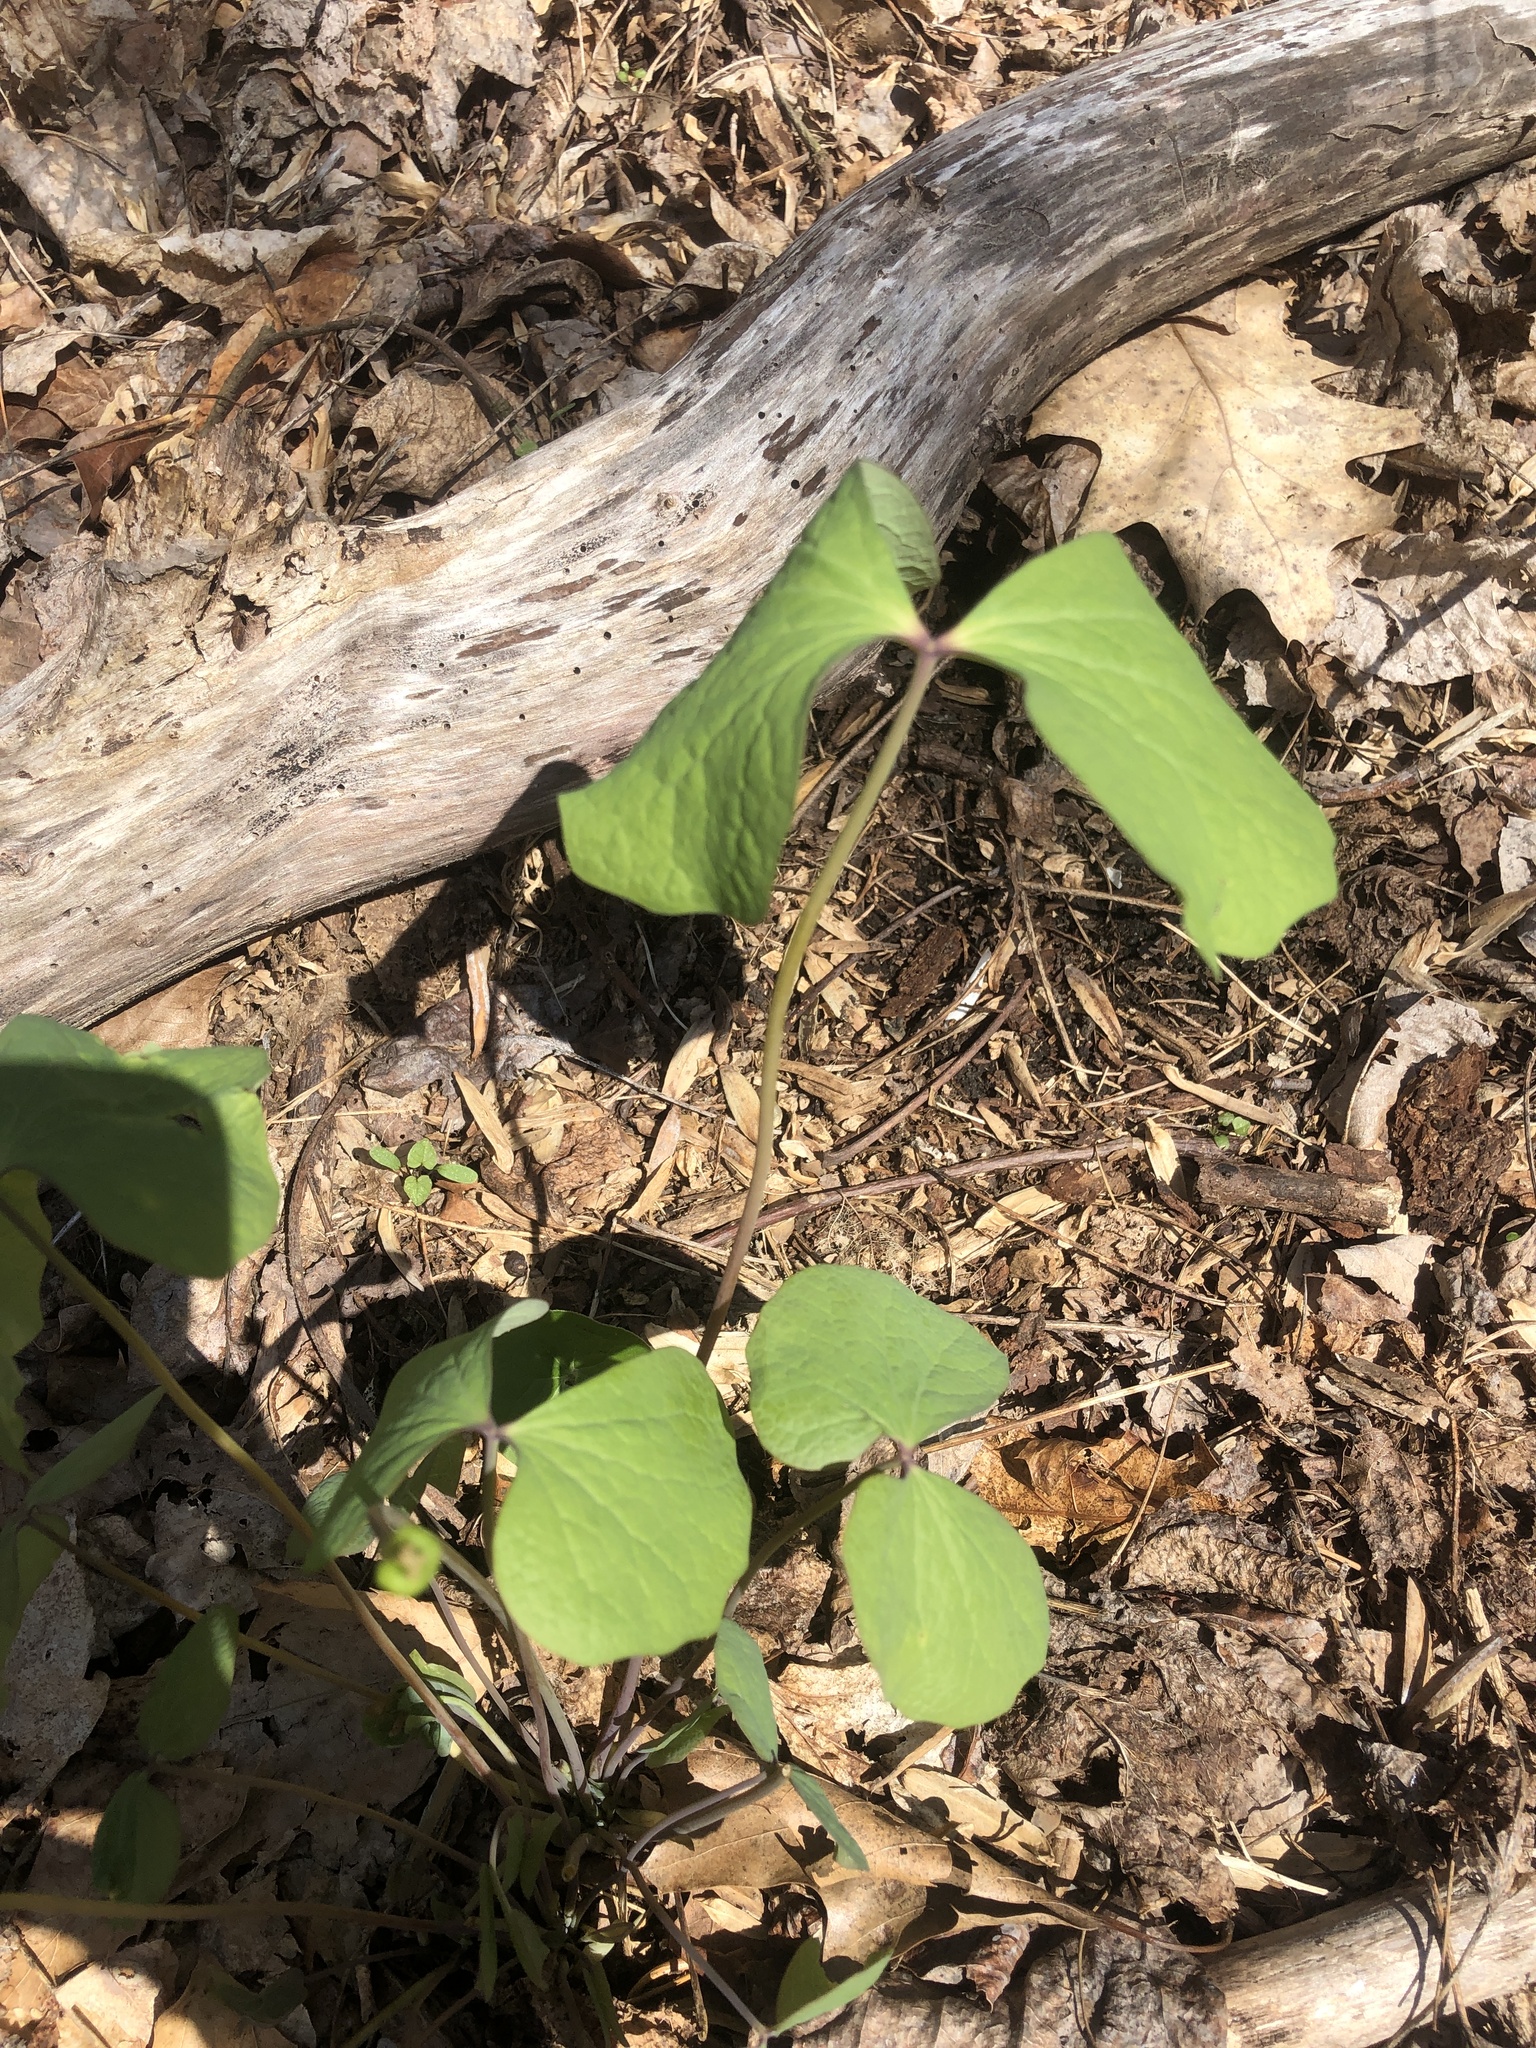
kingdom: Plantae
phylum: Tracheophyta
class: Magnoliopsida
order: Ranunculales
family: Berberidaceae
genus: Jeffersonia
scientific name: Jeffersonia diphylla
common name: Rheumatism-root
